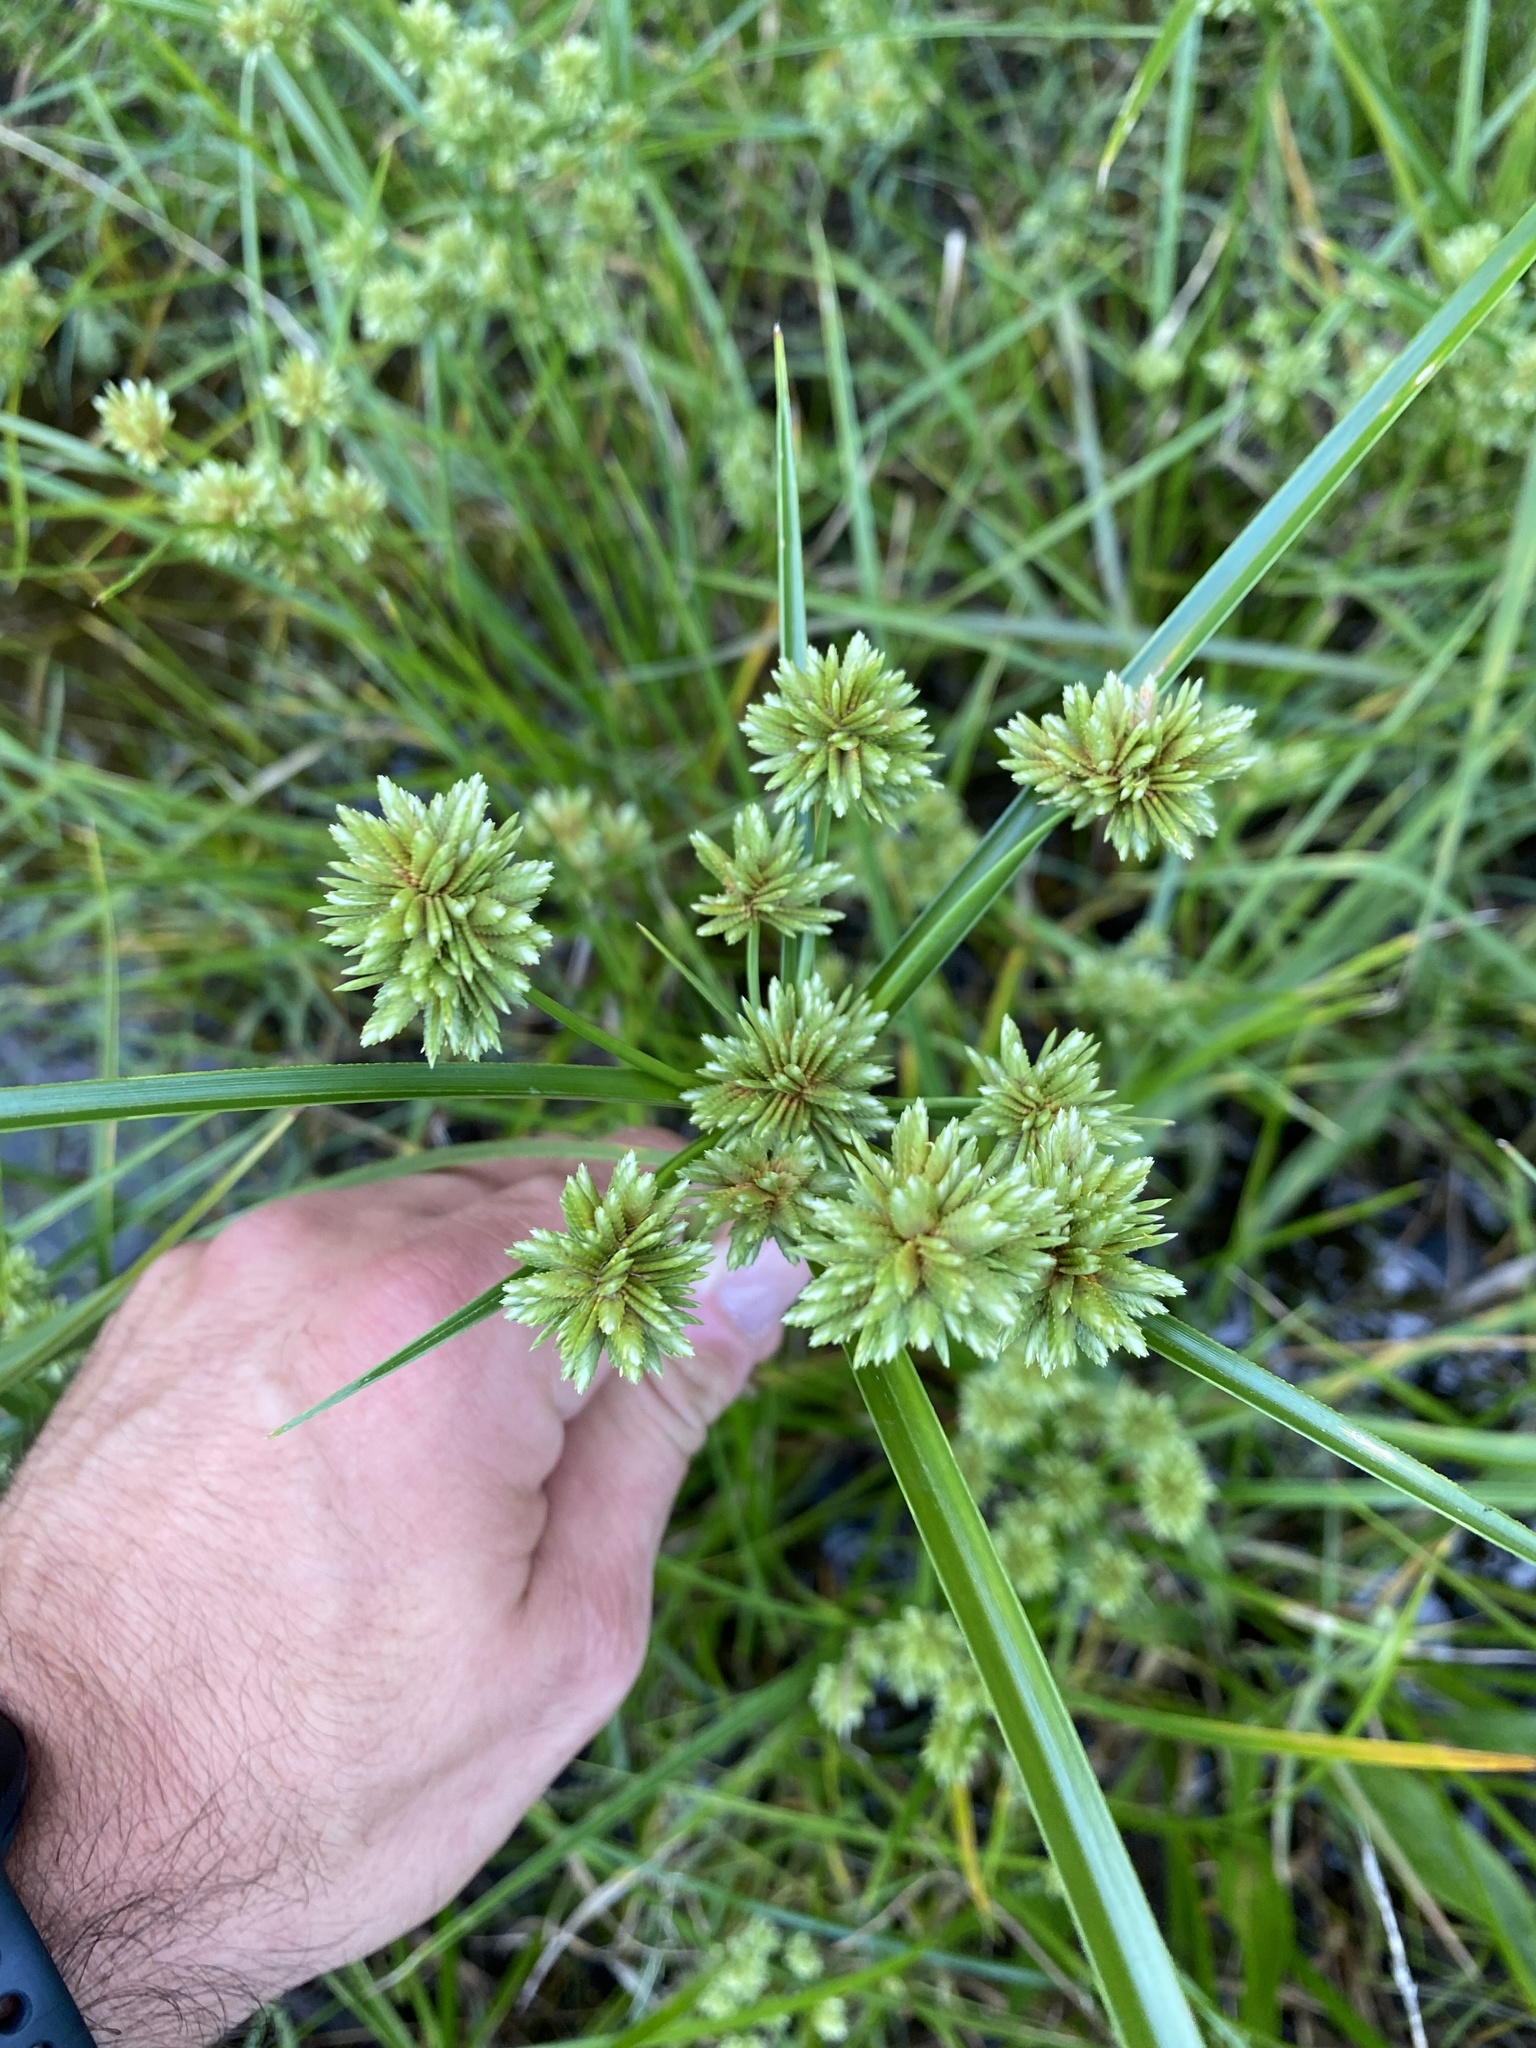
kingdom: Plantae
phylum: Tracheophyta
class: Liliopsida
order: Poales
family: Cyperaceae
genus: Cyperus
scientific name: Cyperus virens
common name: Green flatsedge
